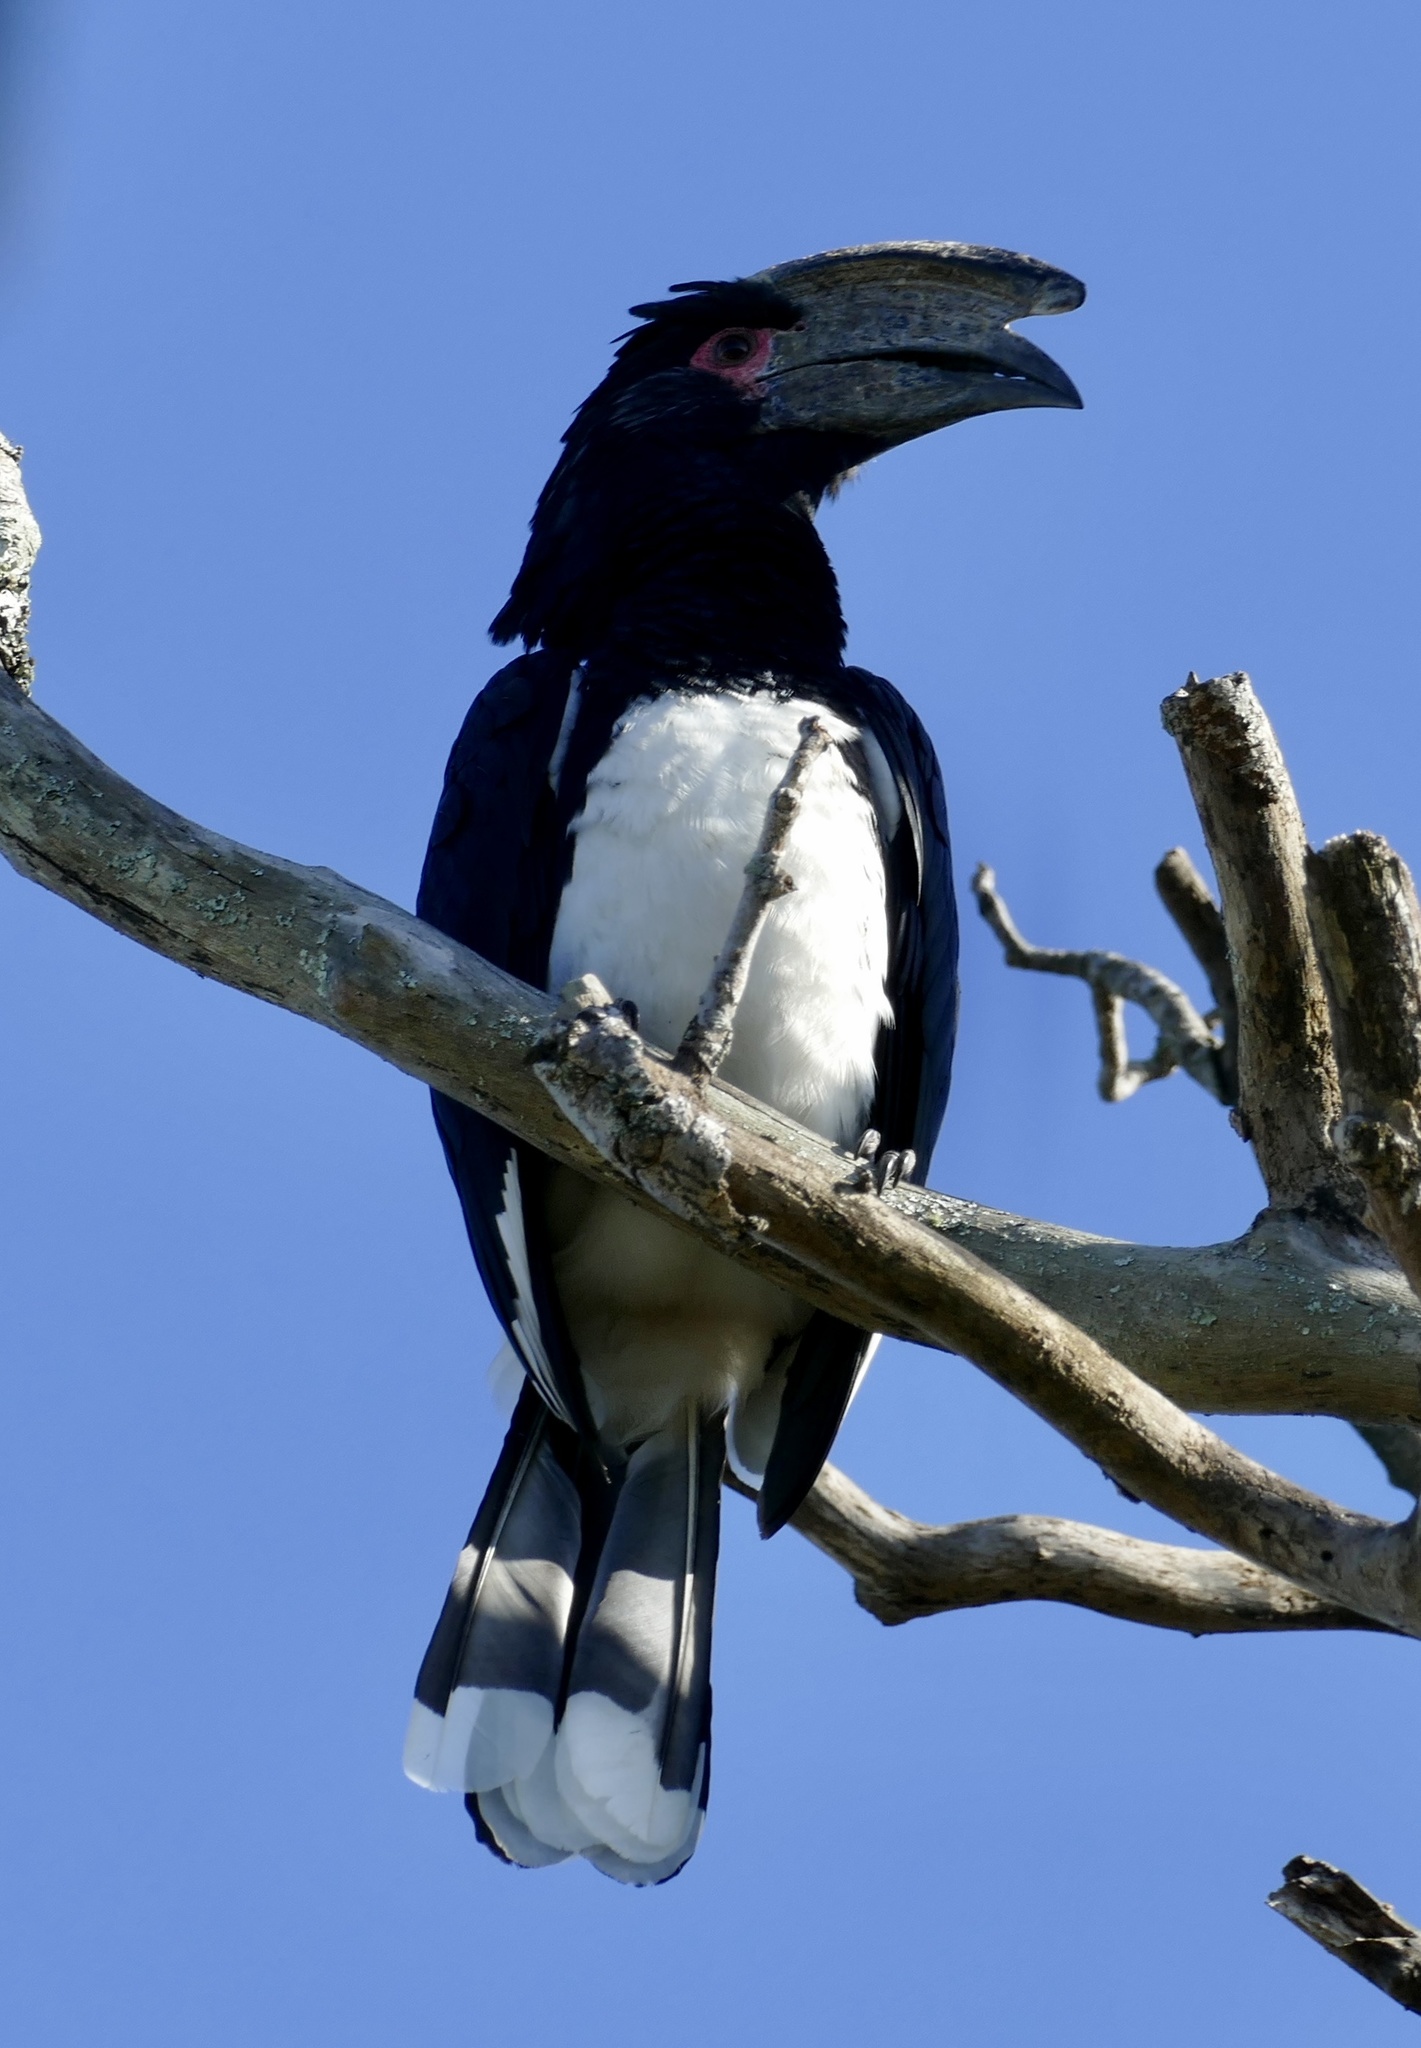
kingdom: Animalia
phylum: Chordata
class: Aves
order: Bucerotiformes
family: Bucerotidae
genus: Bycanistes
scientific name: Bycanistes bucinator
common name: Trumpeter hornbill
